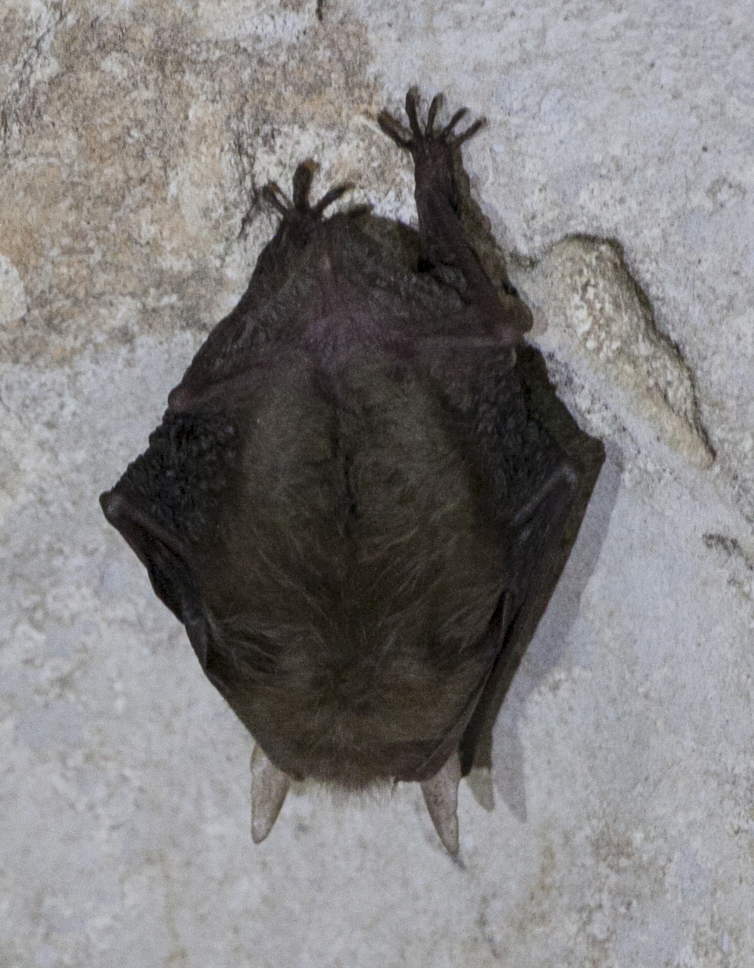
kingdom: Animalia
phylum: Chordata
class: Mammalia
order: Chiroptera
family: Vespertilionidae
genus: Plecotus
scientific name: Plecotus auritus
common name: Brown long-eared bat
